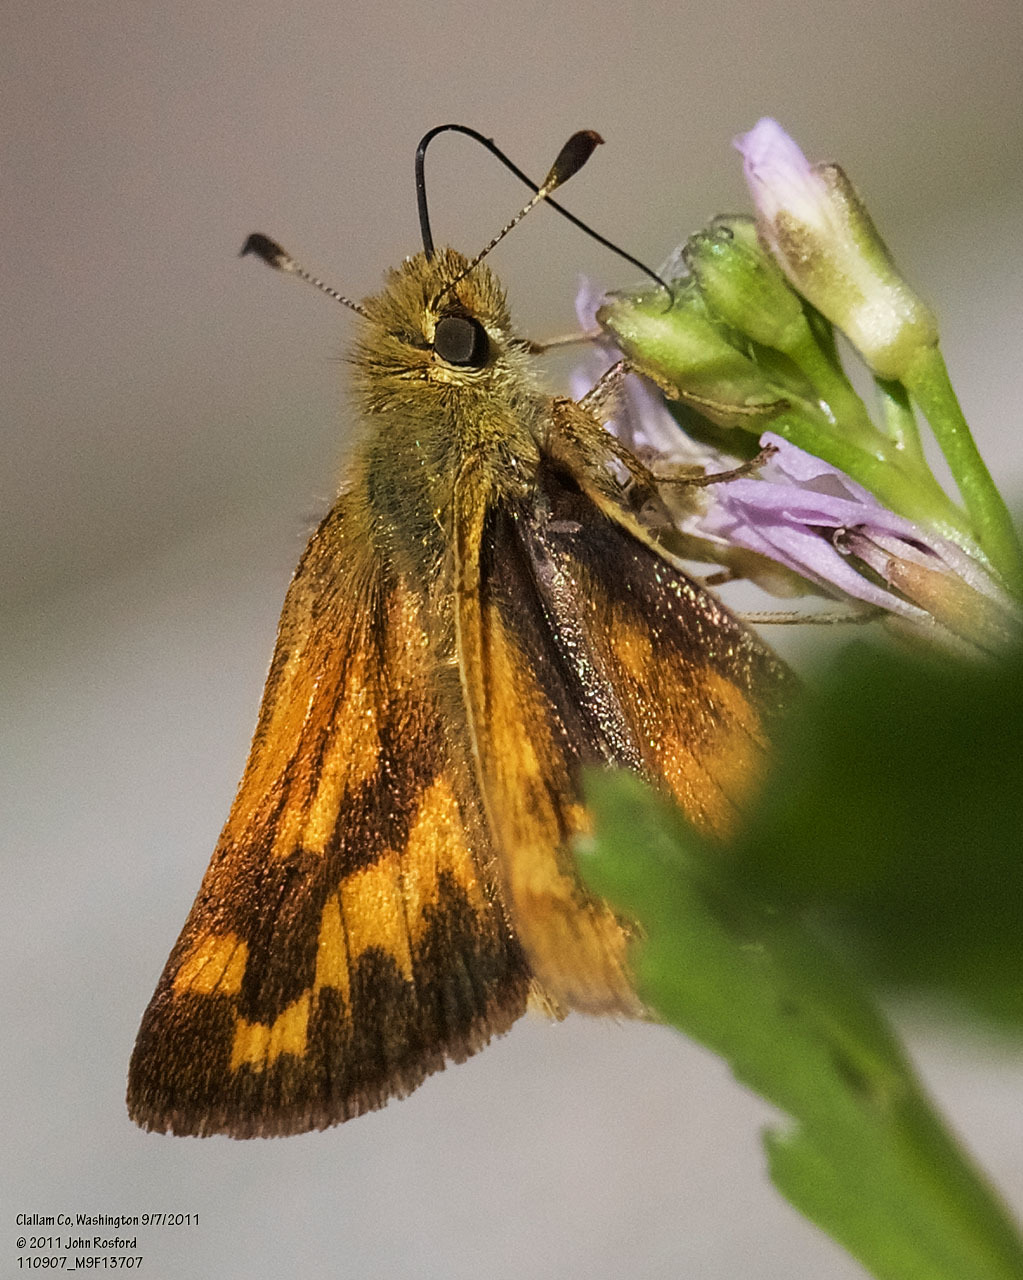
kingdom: Animalia
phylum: Arthropoda
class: Insecta
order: Lepidoptera
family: Hesperiidae
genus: Ochlodes
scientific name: Ochlodes sylvanoides
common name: Woodland skipper
